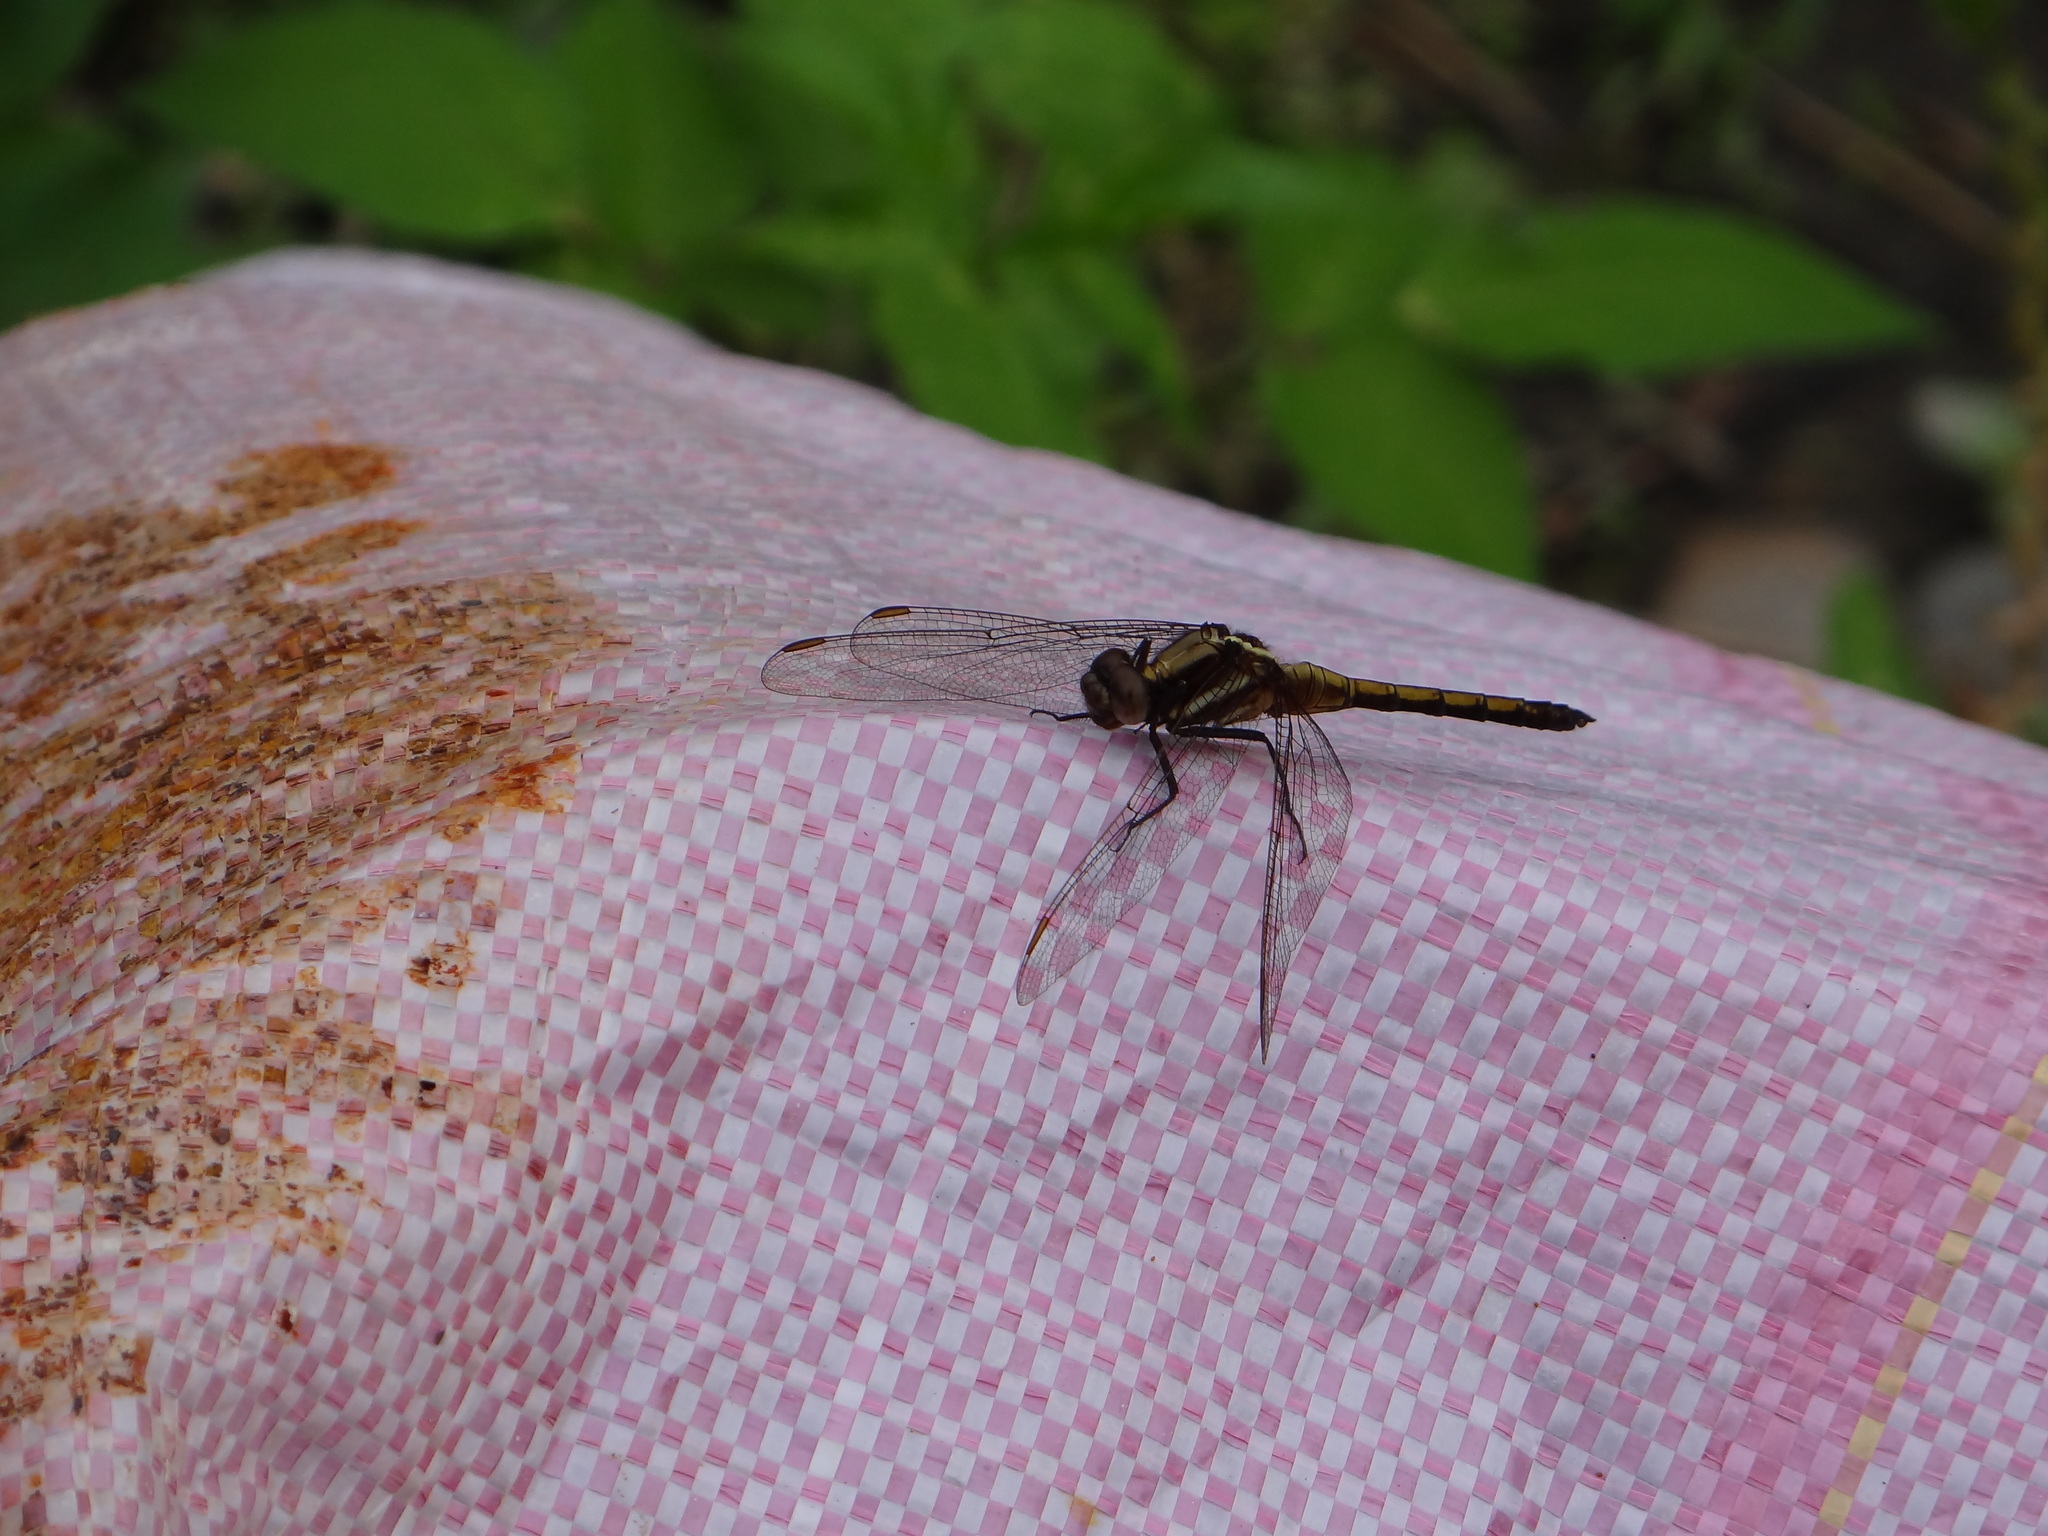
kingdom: Animalia
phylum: Arthropoda
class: Insecta
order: Odonata
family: Libellulidae
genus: Orthetrum
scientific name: Orthetrum glaucum
